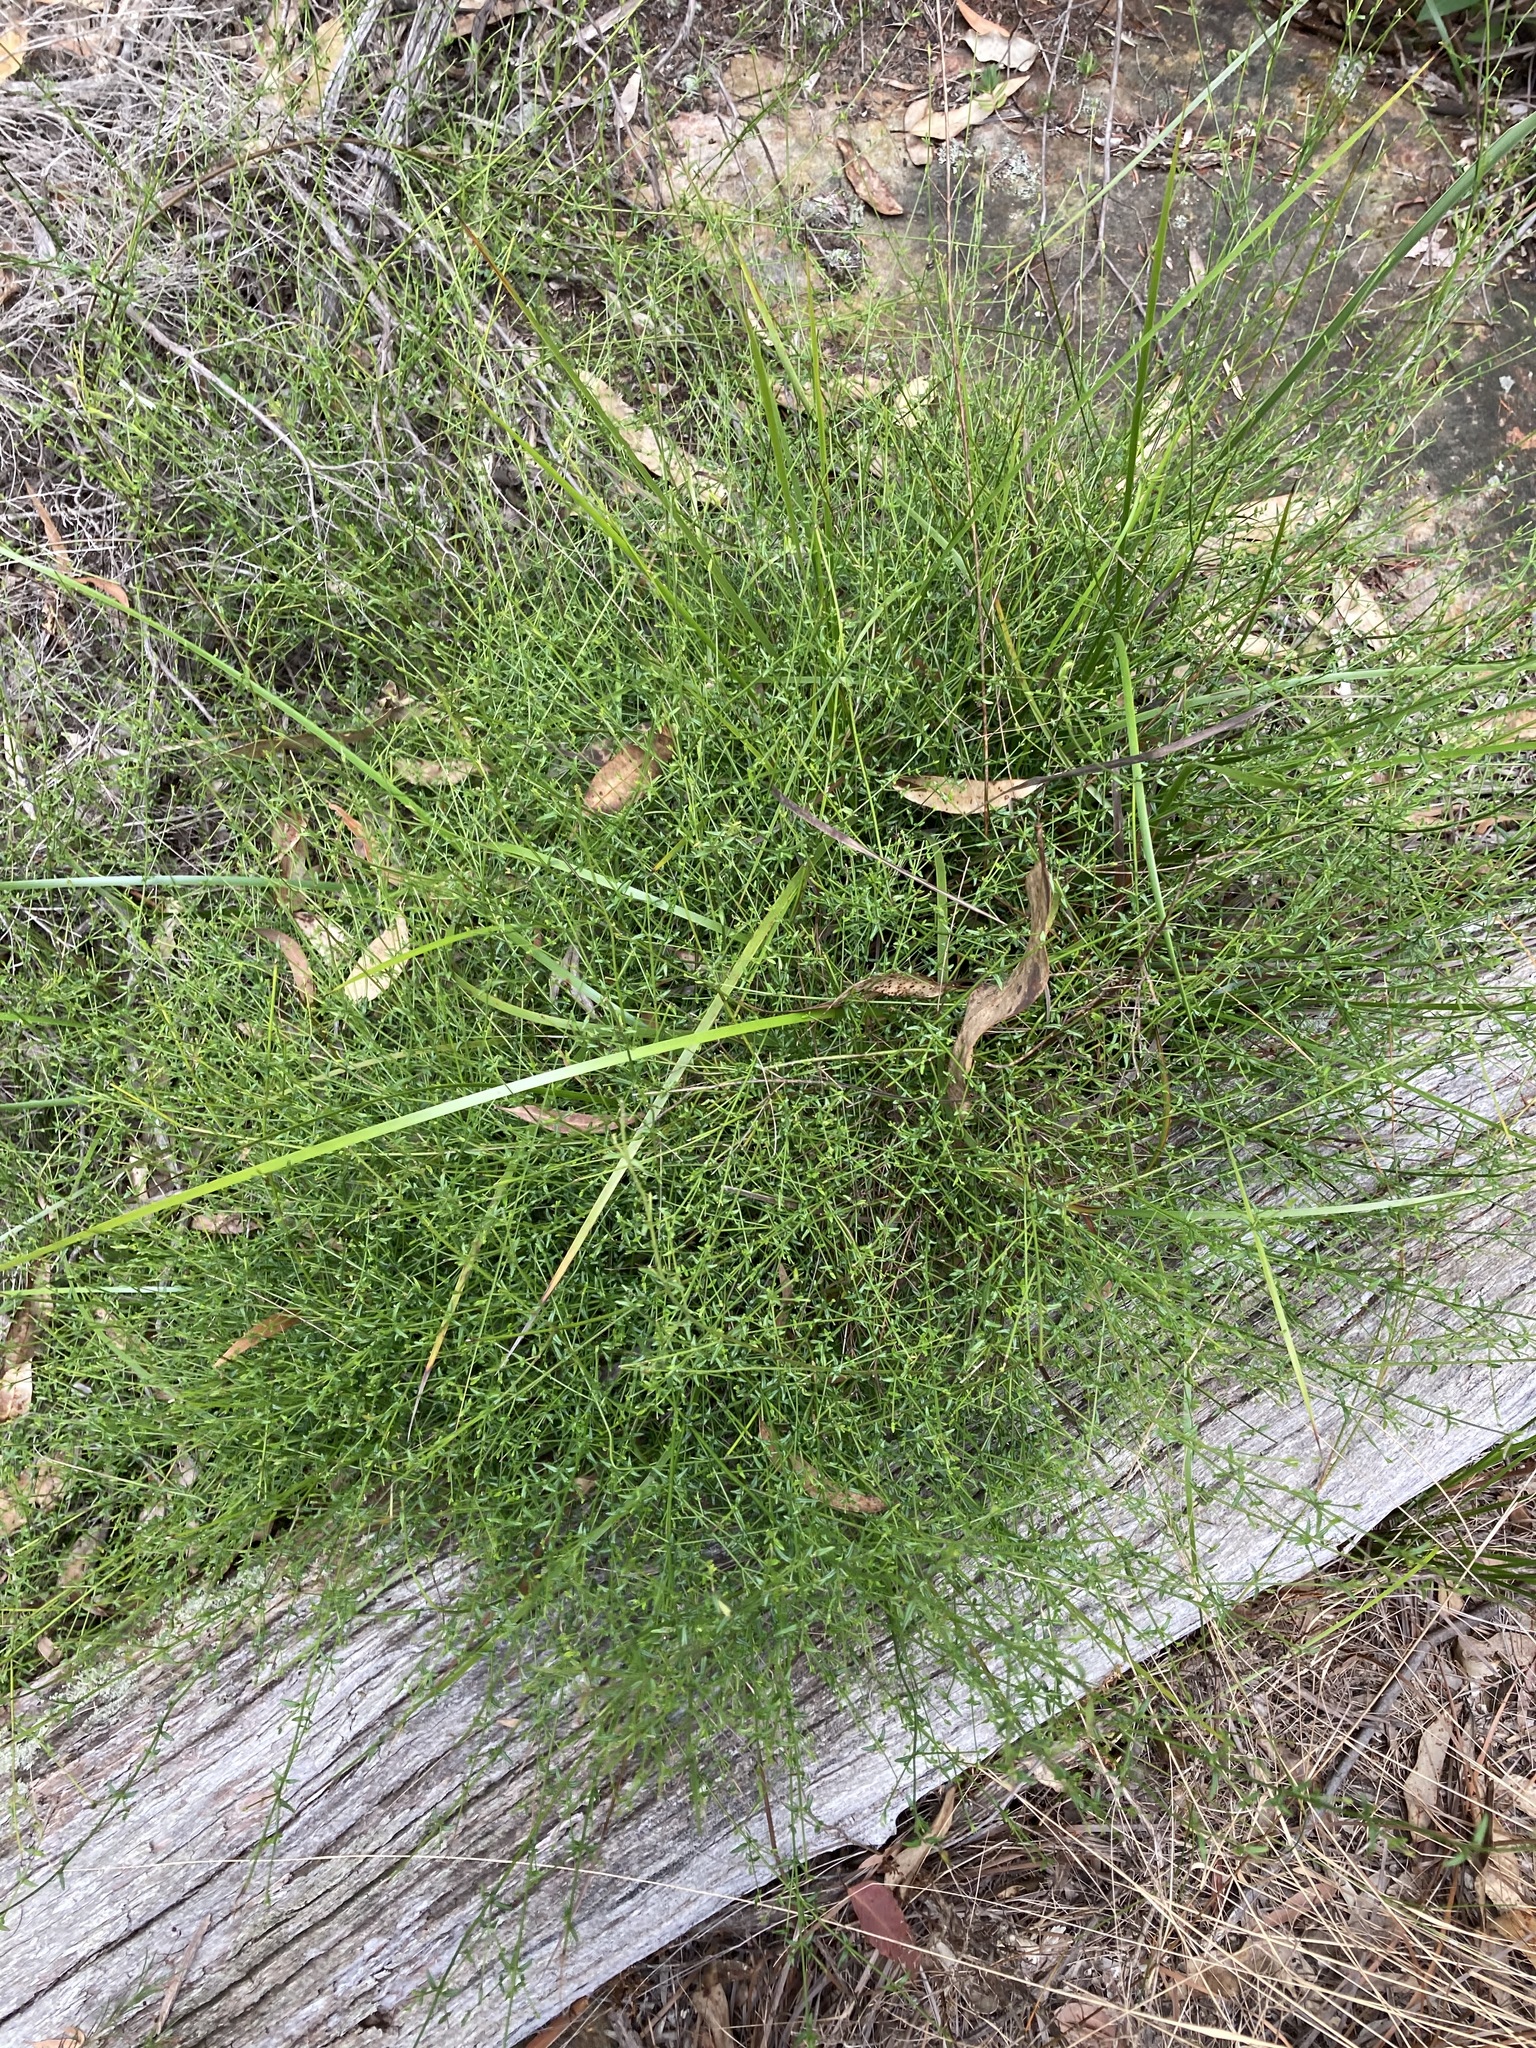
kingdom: Plantae
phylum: Tracheophyta
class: Magnoliopsida
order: Lamiales
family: Lamiaceae
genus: Prostanthera
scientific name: Prostanthera denticulata
